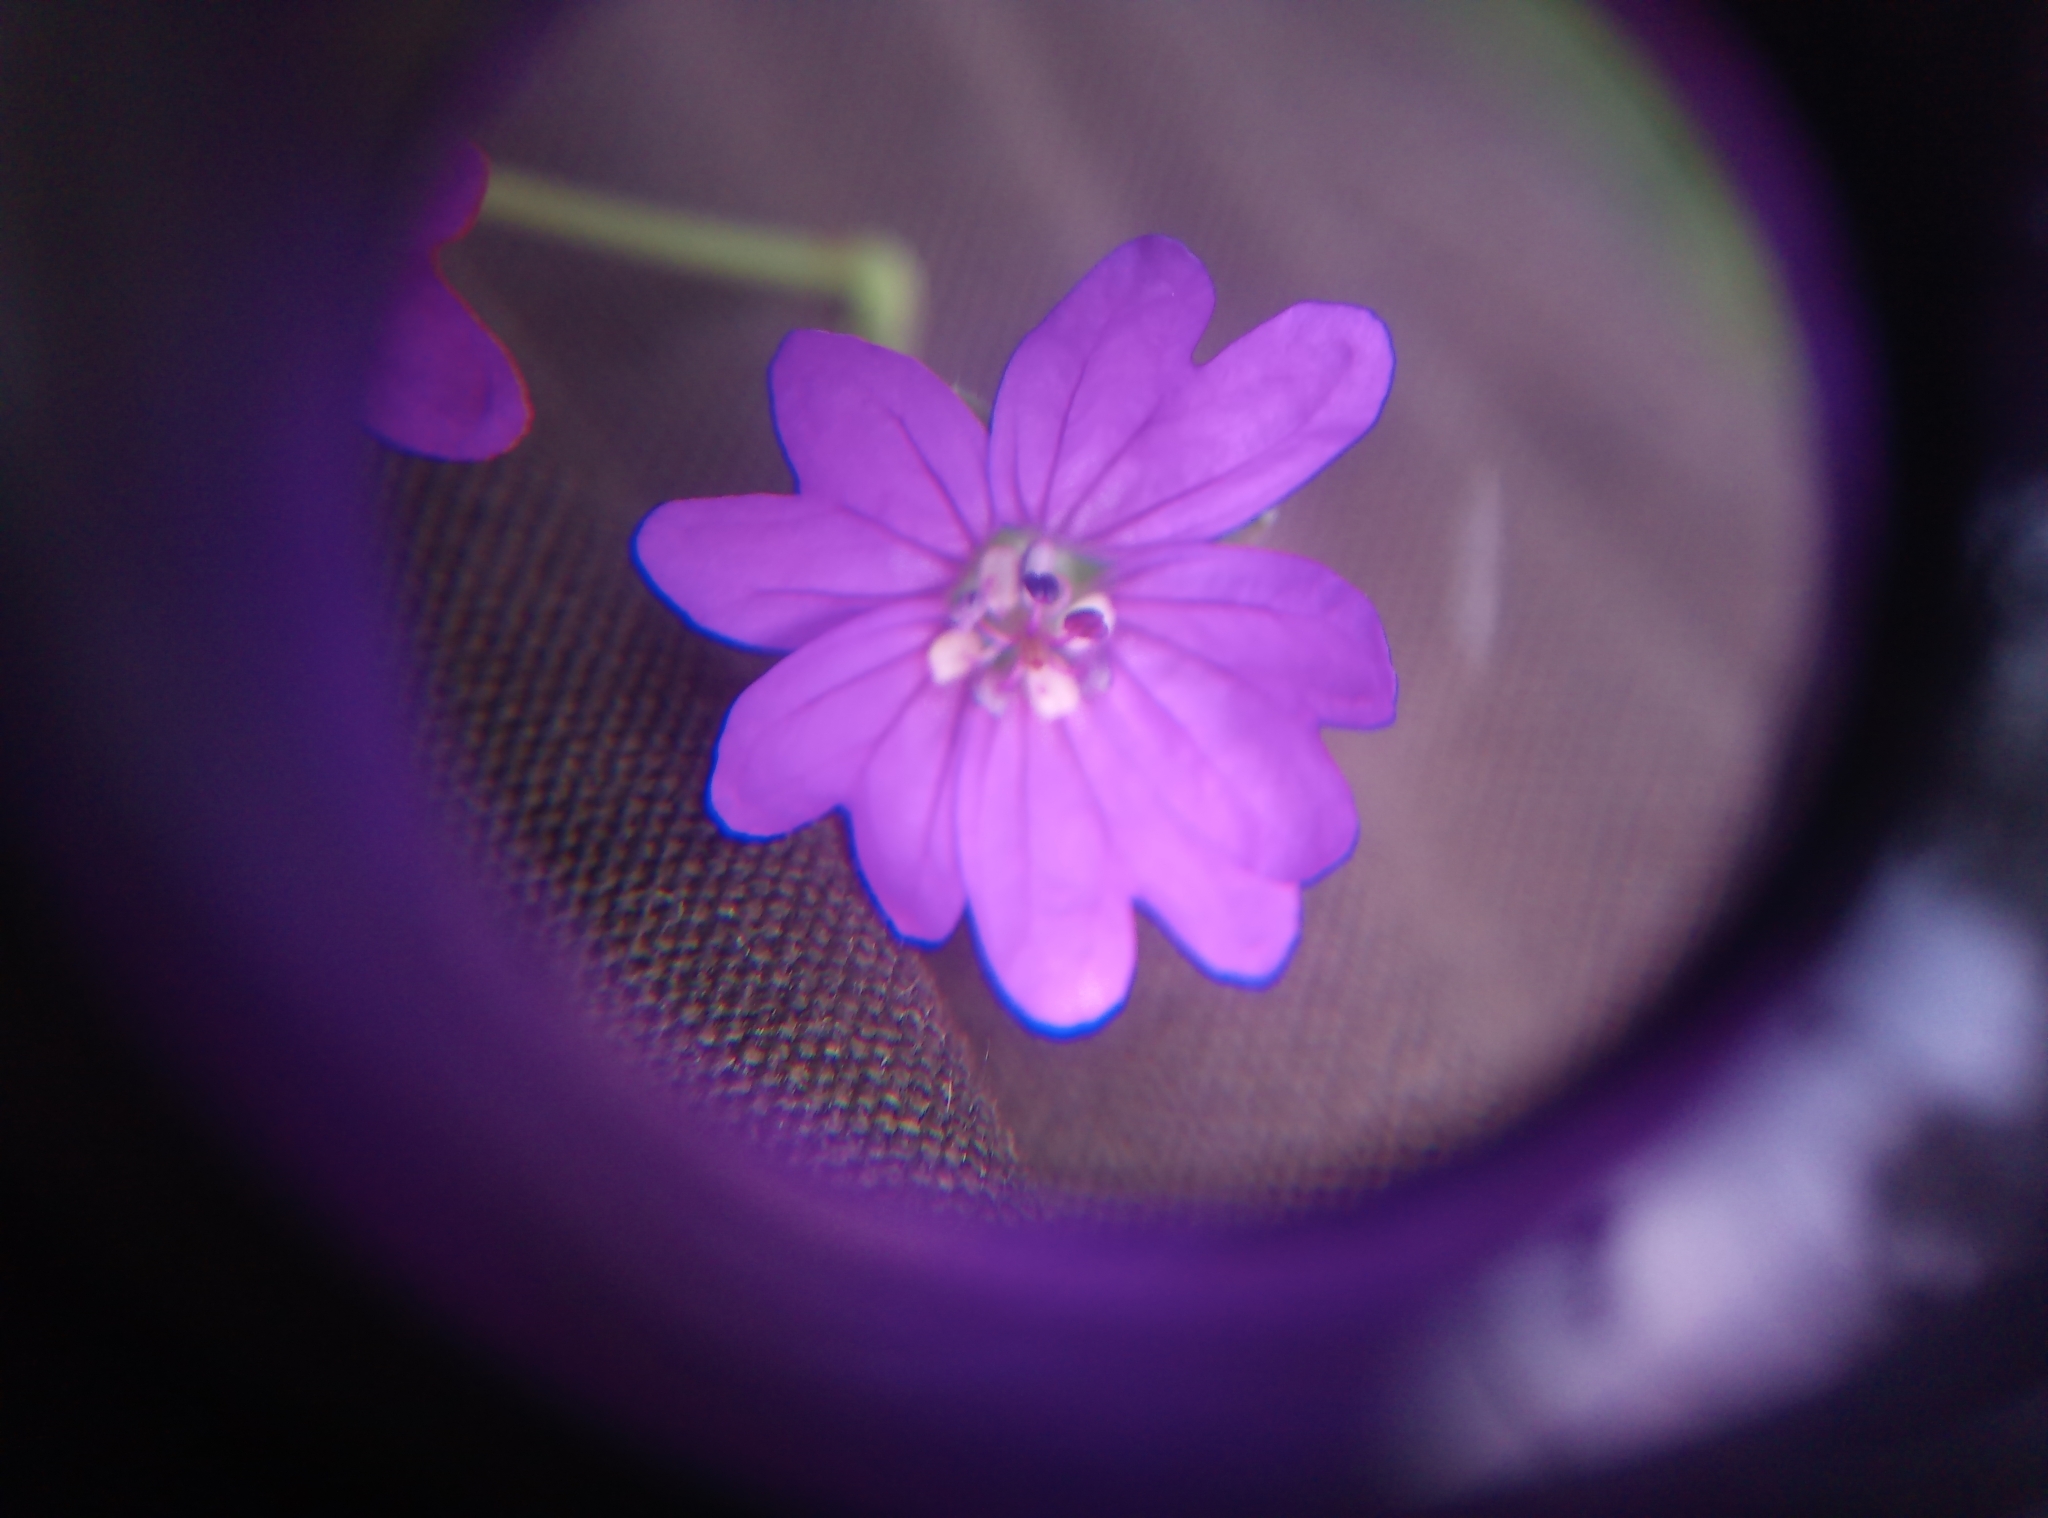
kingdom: Plantae
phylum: Tracheophyta
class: Magnoliopsida
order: Geraniales
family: Geraniaceae
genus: Geranium
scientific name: Geranium pyrenaicum
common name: Hedgerow crane's-bill
